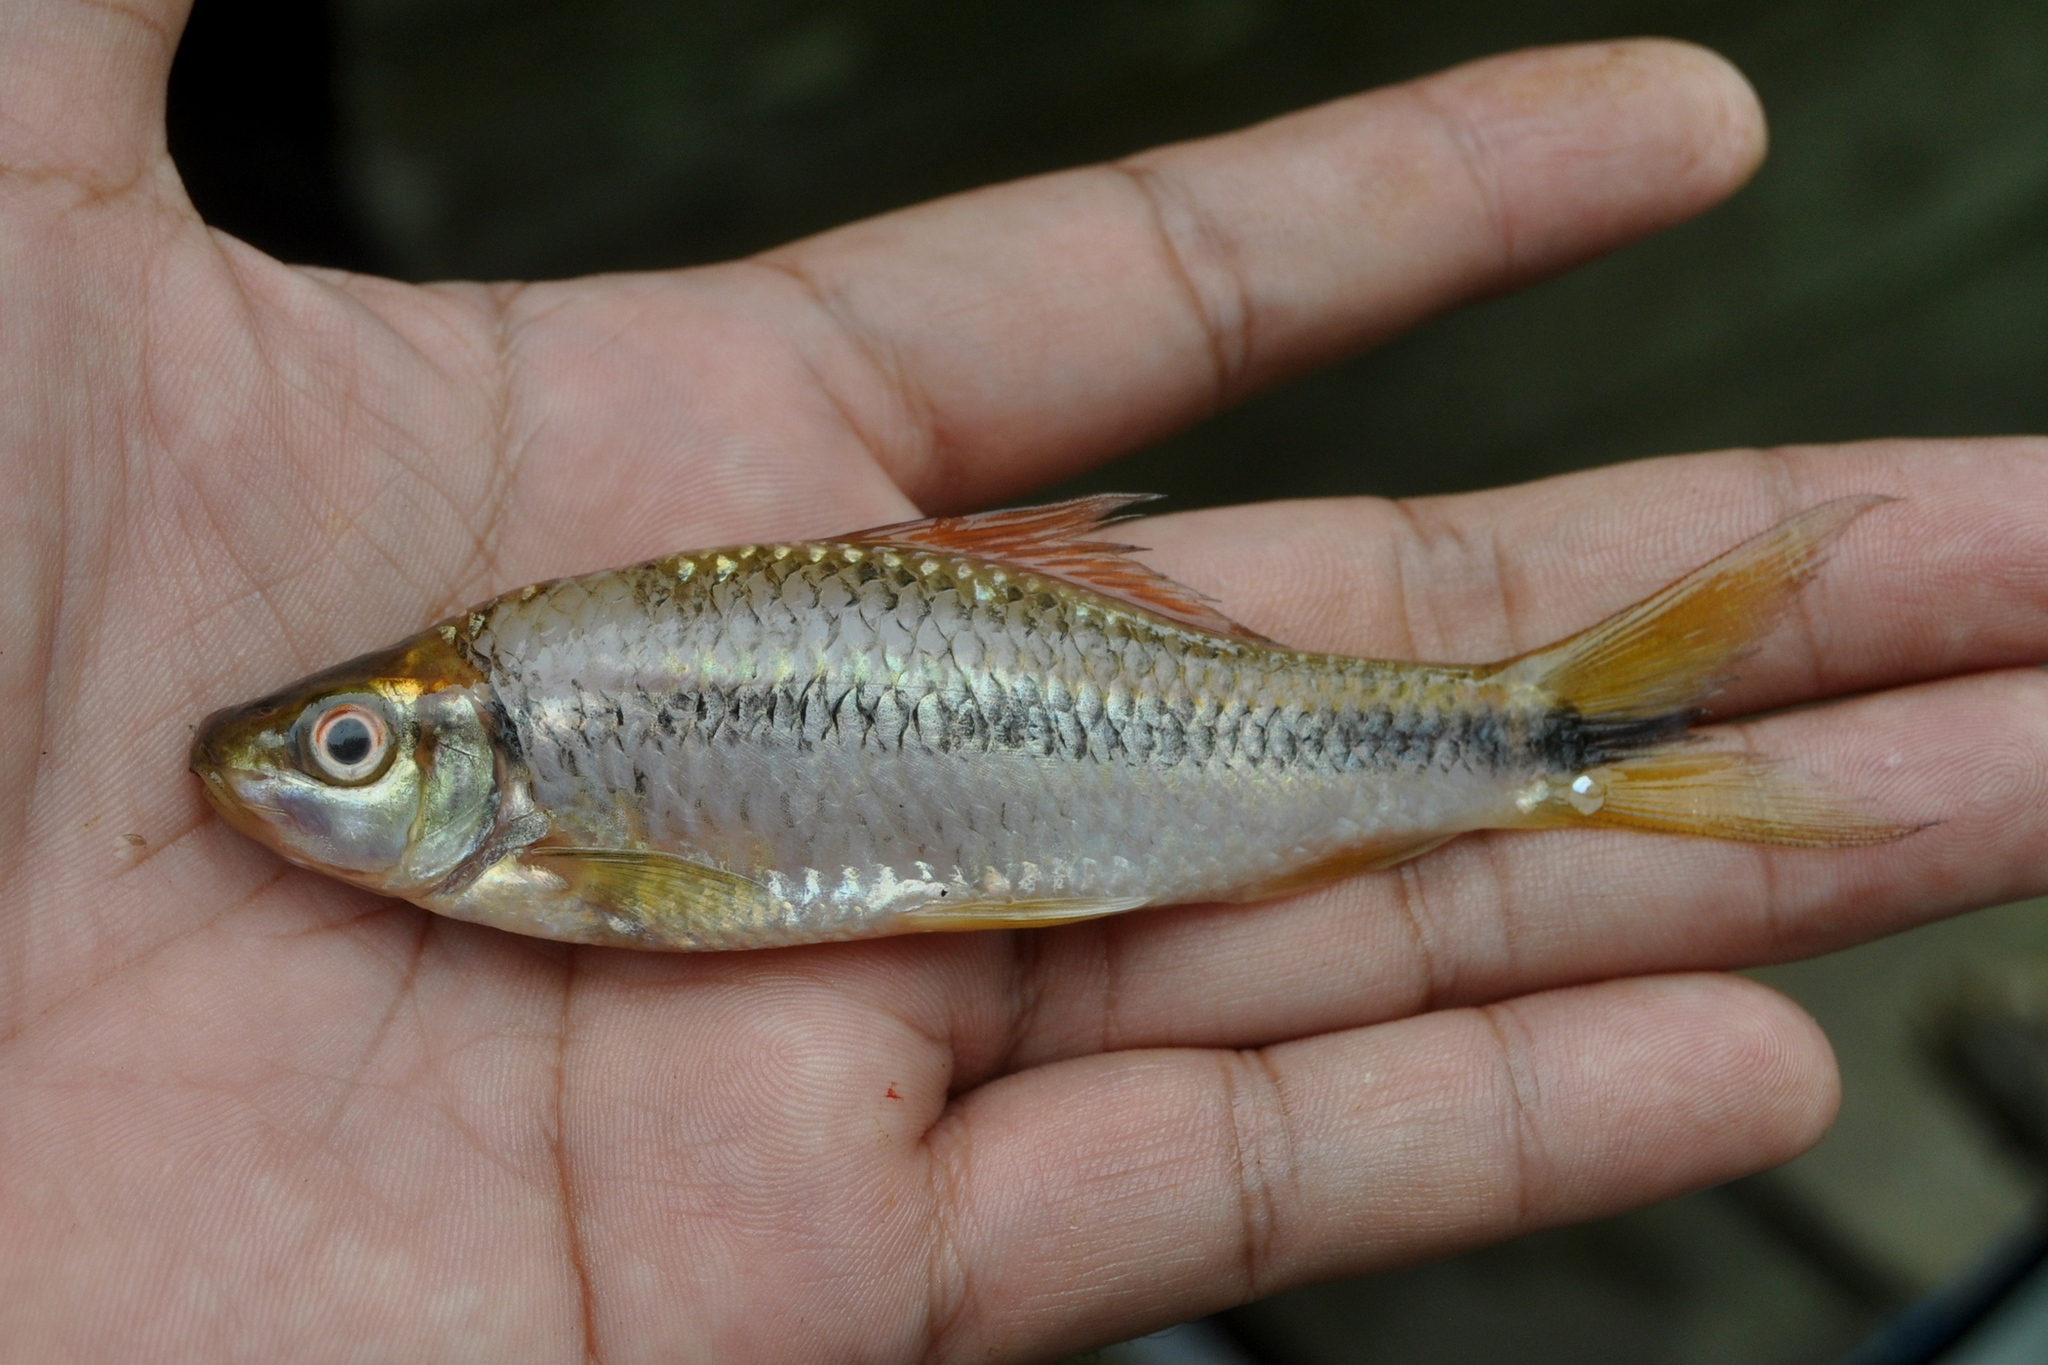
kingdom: Animalia
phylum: Chordata
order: Cypriniformes
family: Cyprinidae
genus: Osteochilus
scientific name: Osteochilus waandersii
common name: Waandersii's hard-lipped barb
